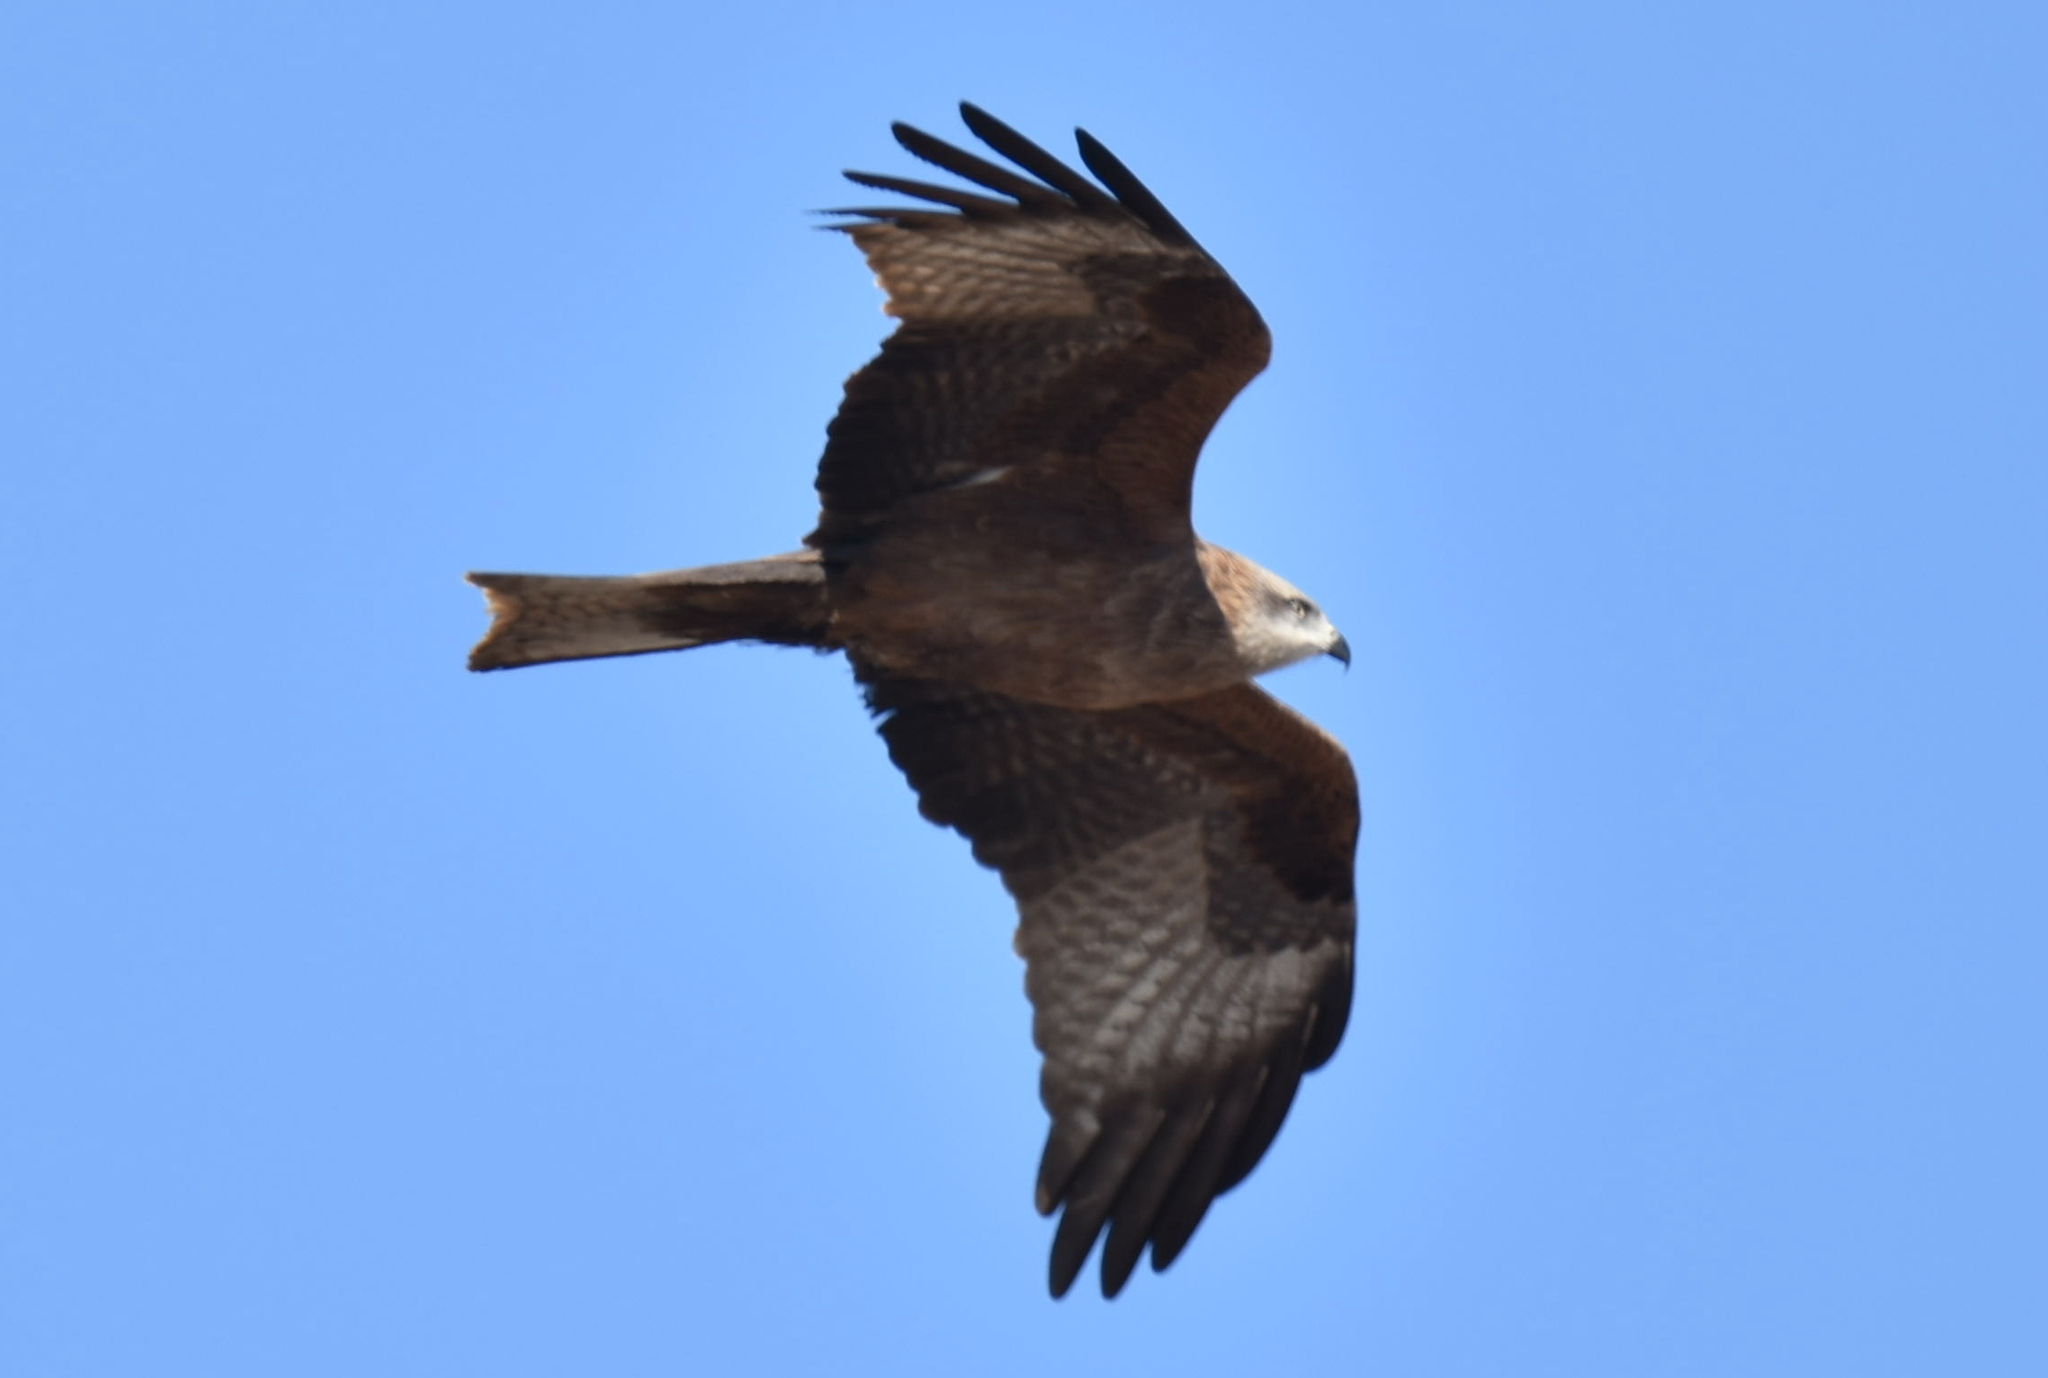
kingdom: Animalia
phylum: Chordata
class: Aves
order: Accipitriformes
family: Accipitridae
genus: Milvus
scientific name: Milvus migrans
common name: Black kite
